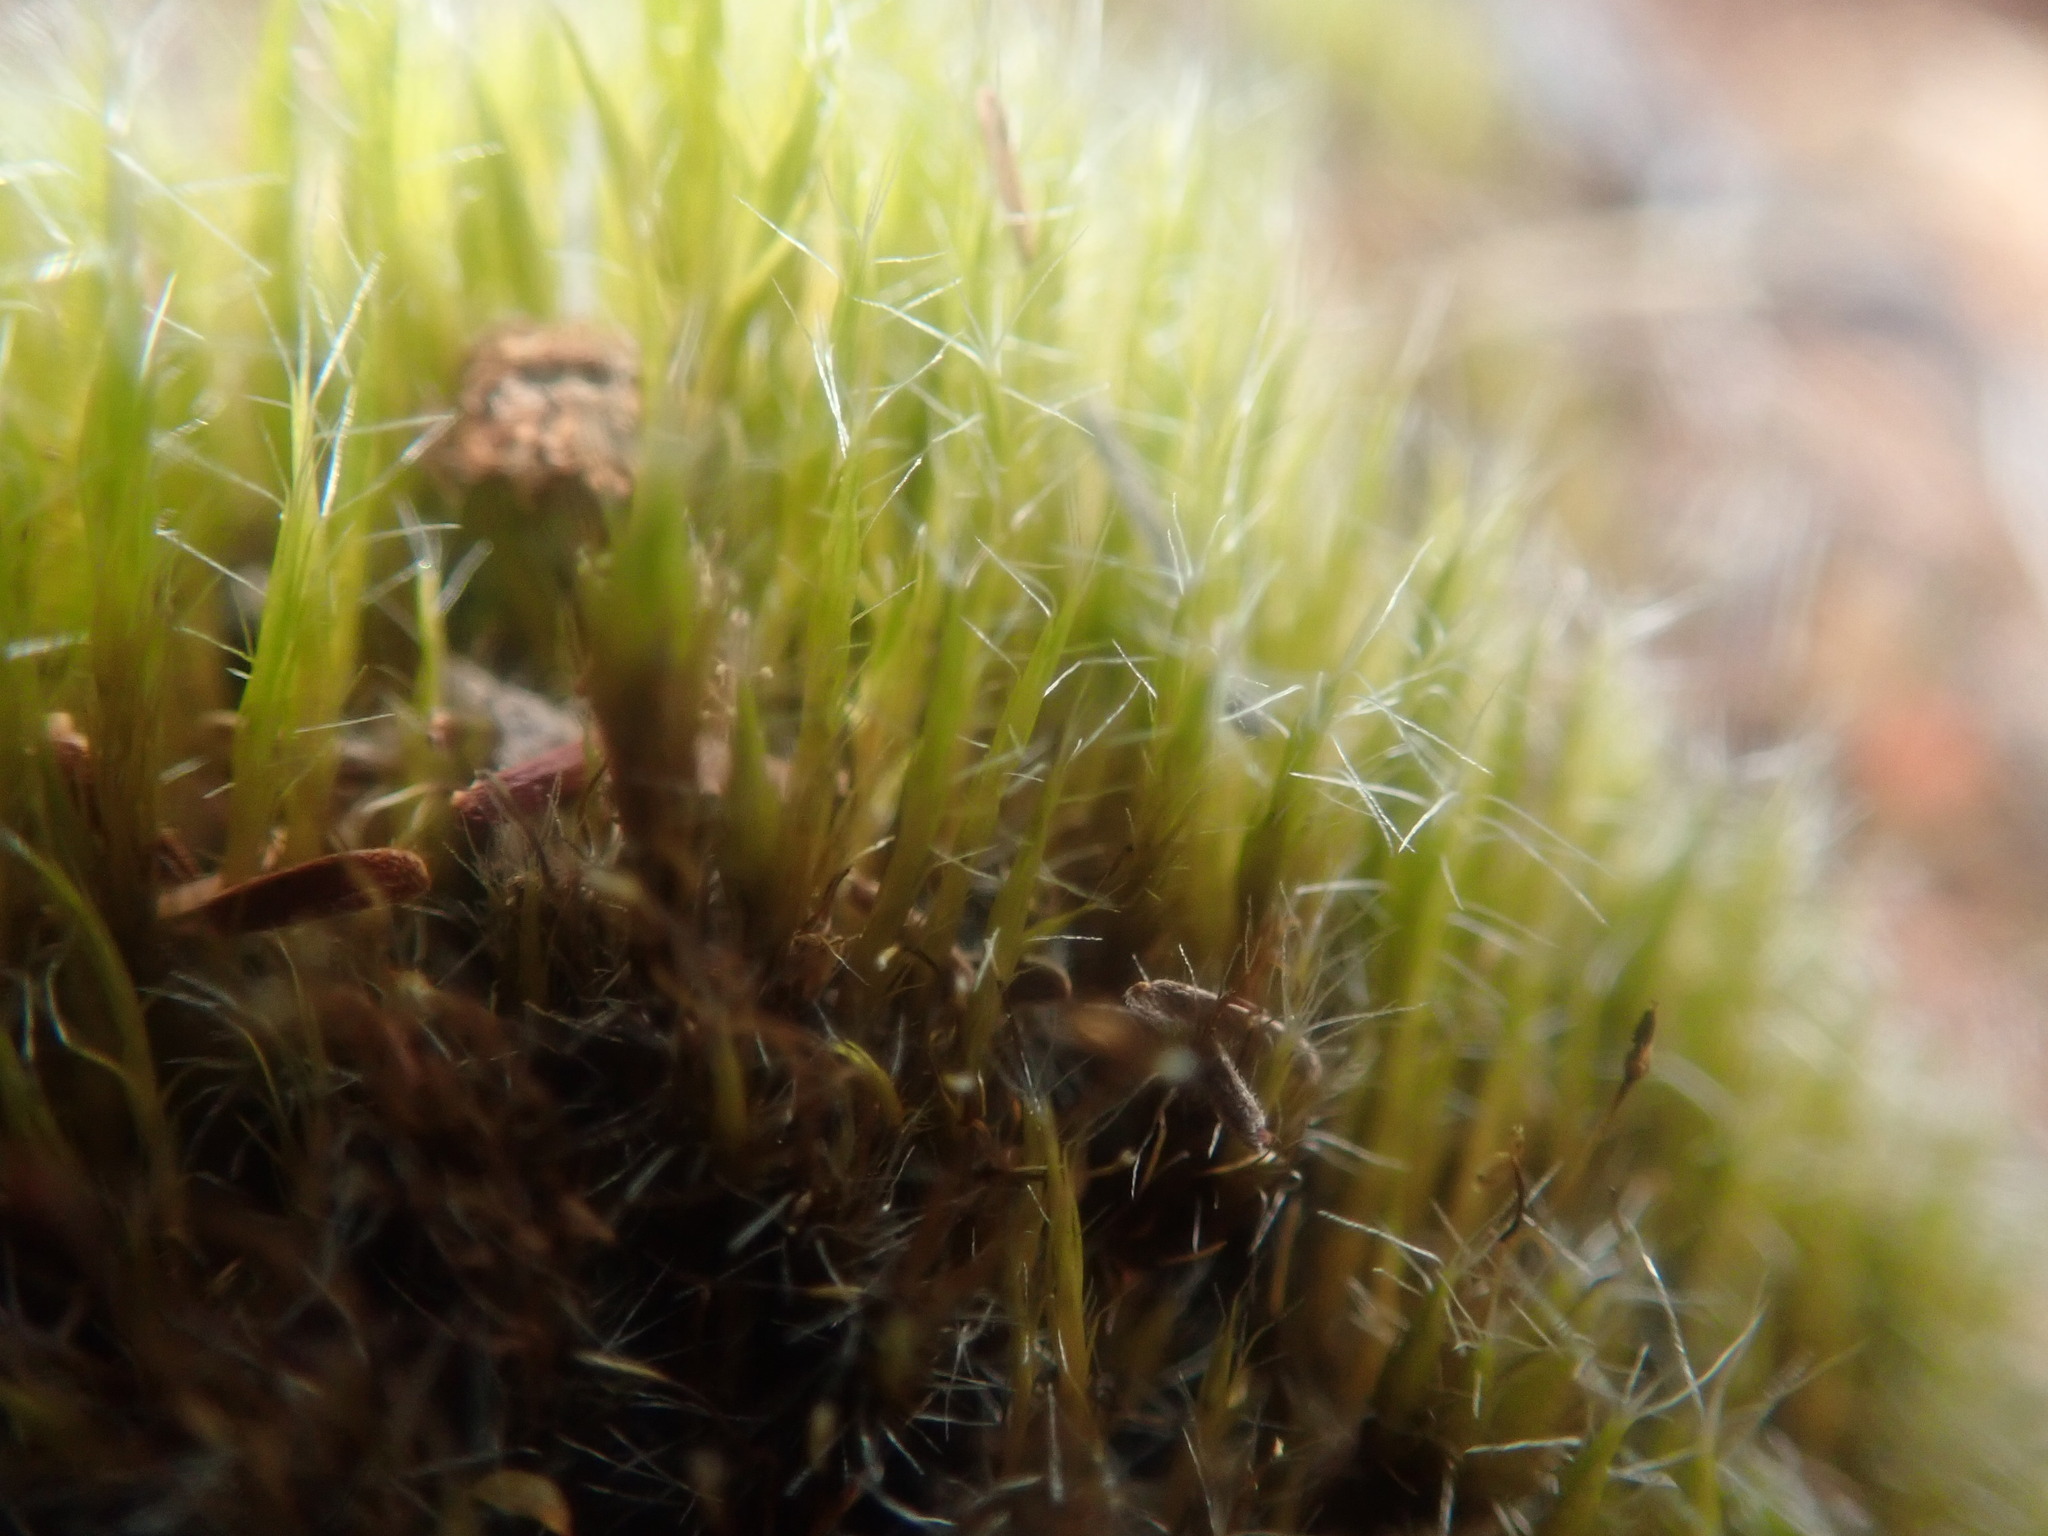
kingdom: Plantae
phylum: Bryophyta
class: Bryopsida
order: Dicranales
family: Leucobryaceae
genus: Campylopus
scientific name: Campylopus introflexus
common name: Heath star moss
